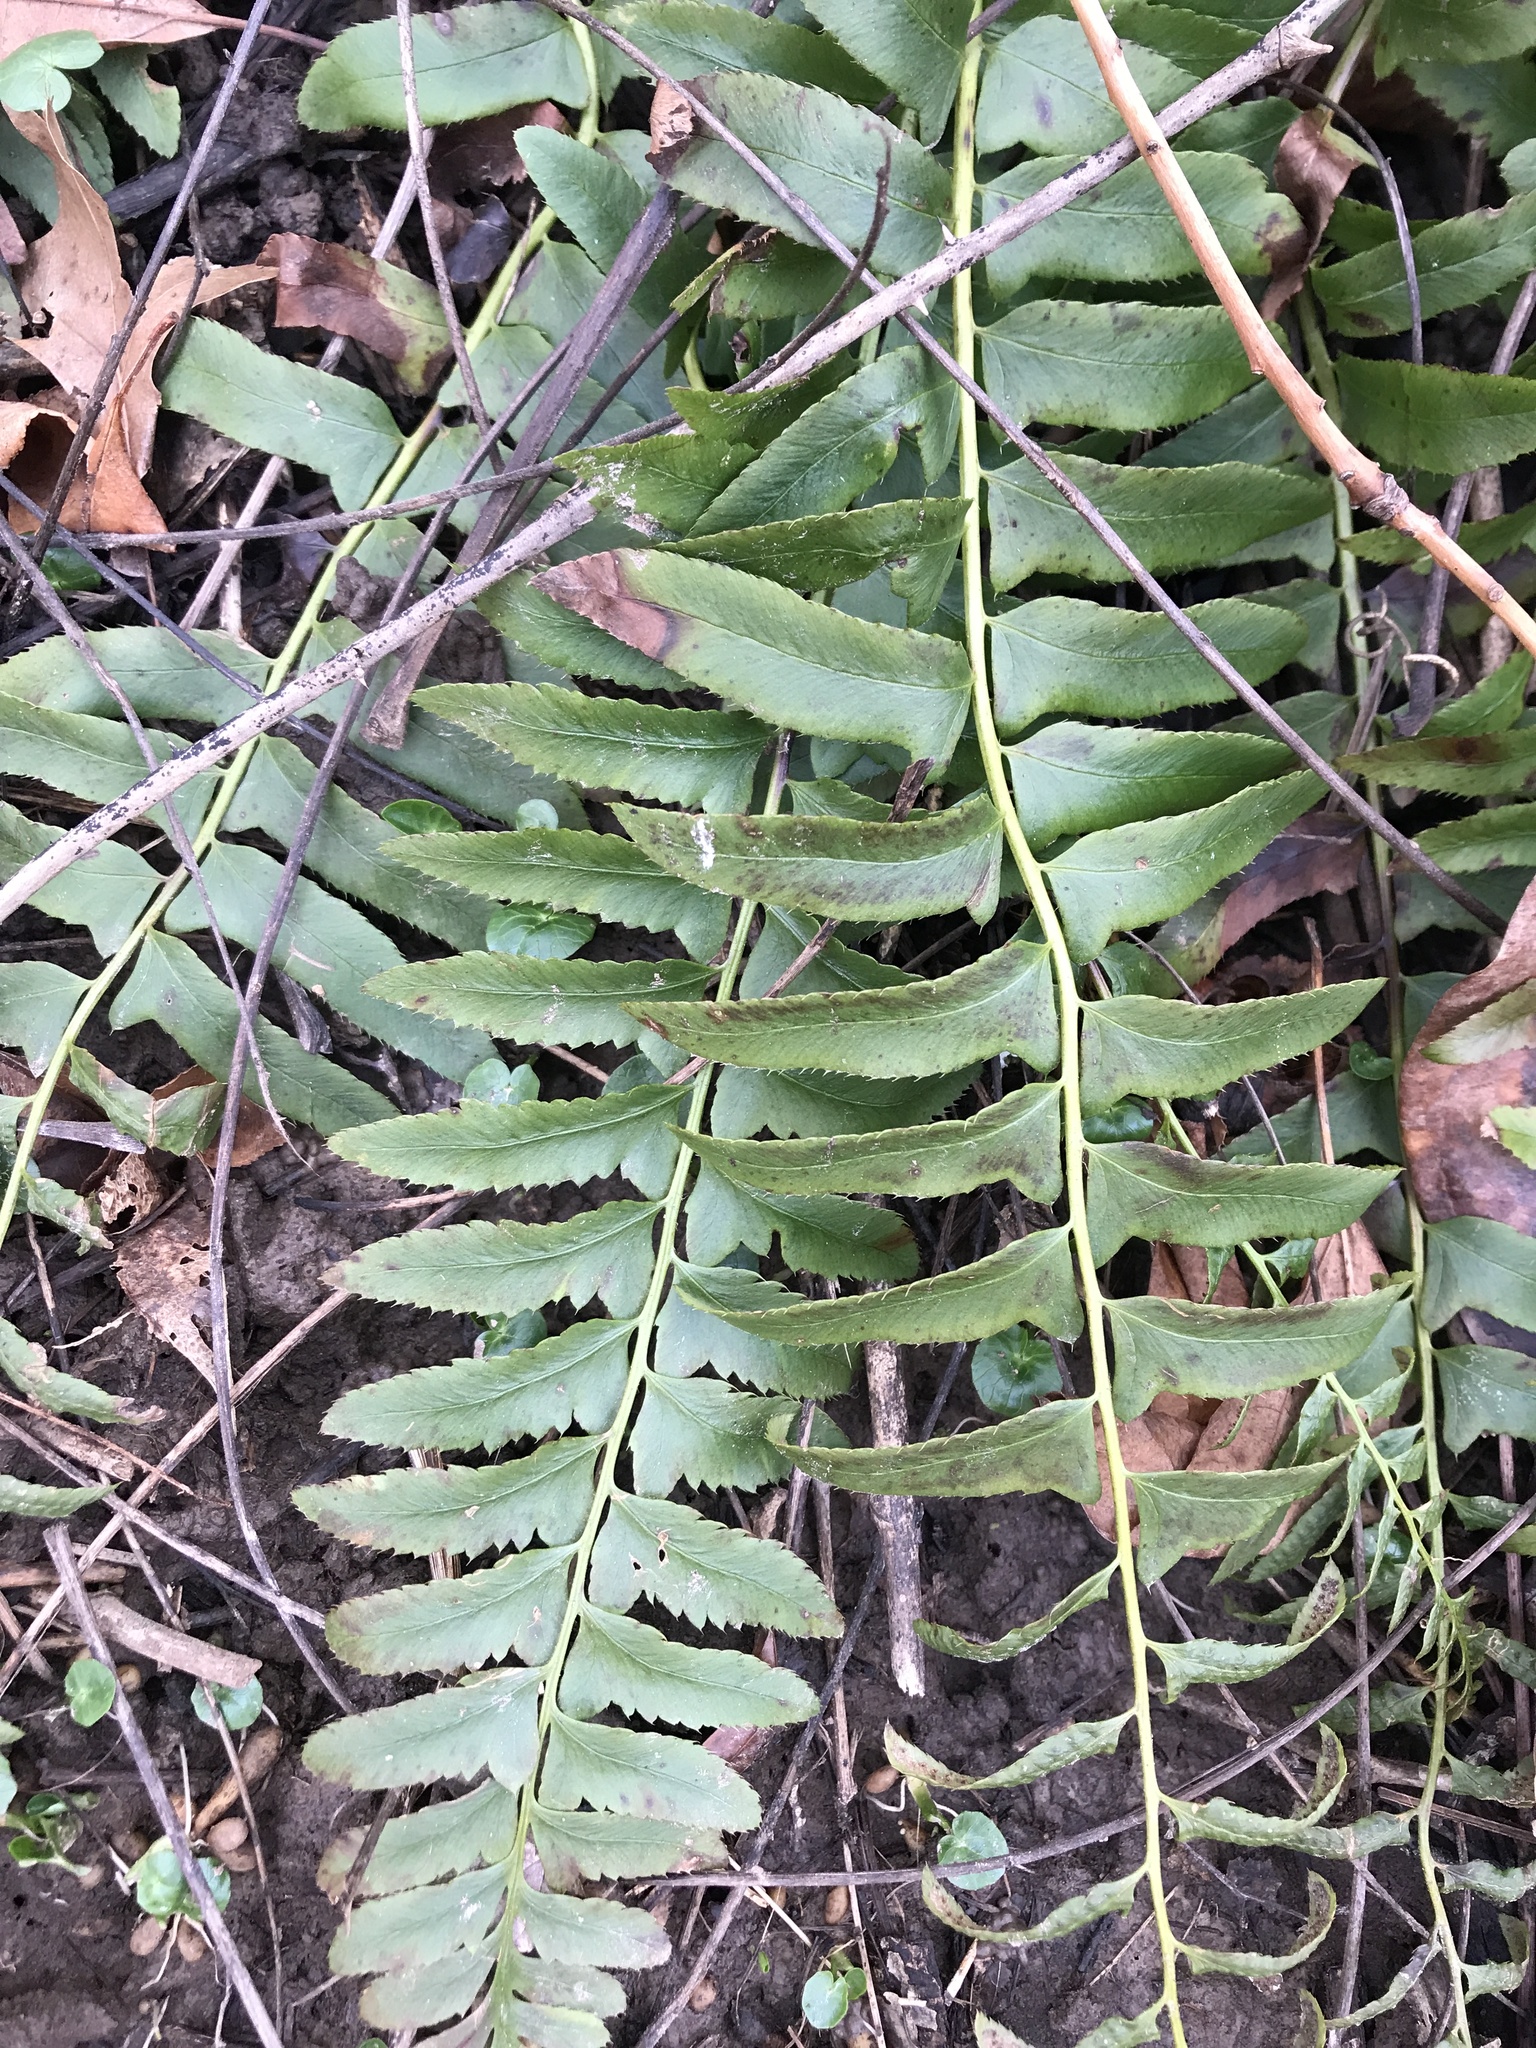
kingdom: Plantae
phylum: Tracheophyta
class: Polypodiopsida
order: Polypodiales
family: Dryopteridaceae
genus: Polystichum
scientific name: Polystichum acrostichoides
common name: Christmas fern
